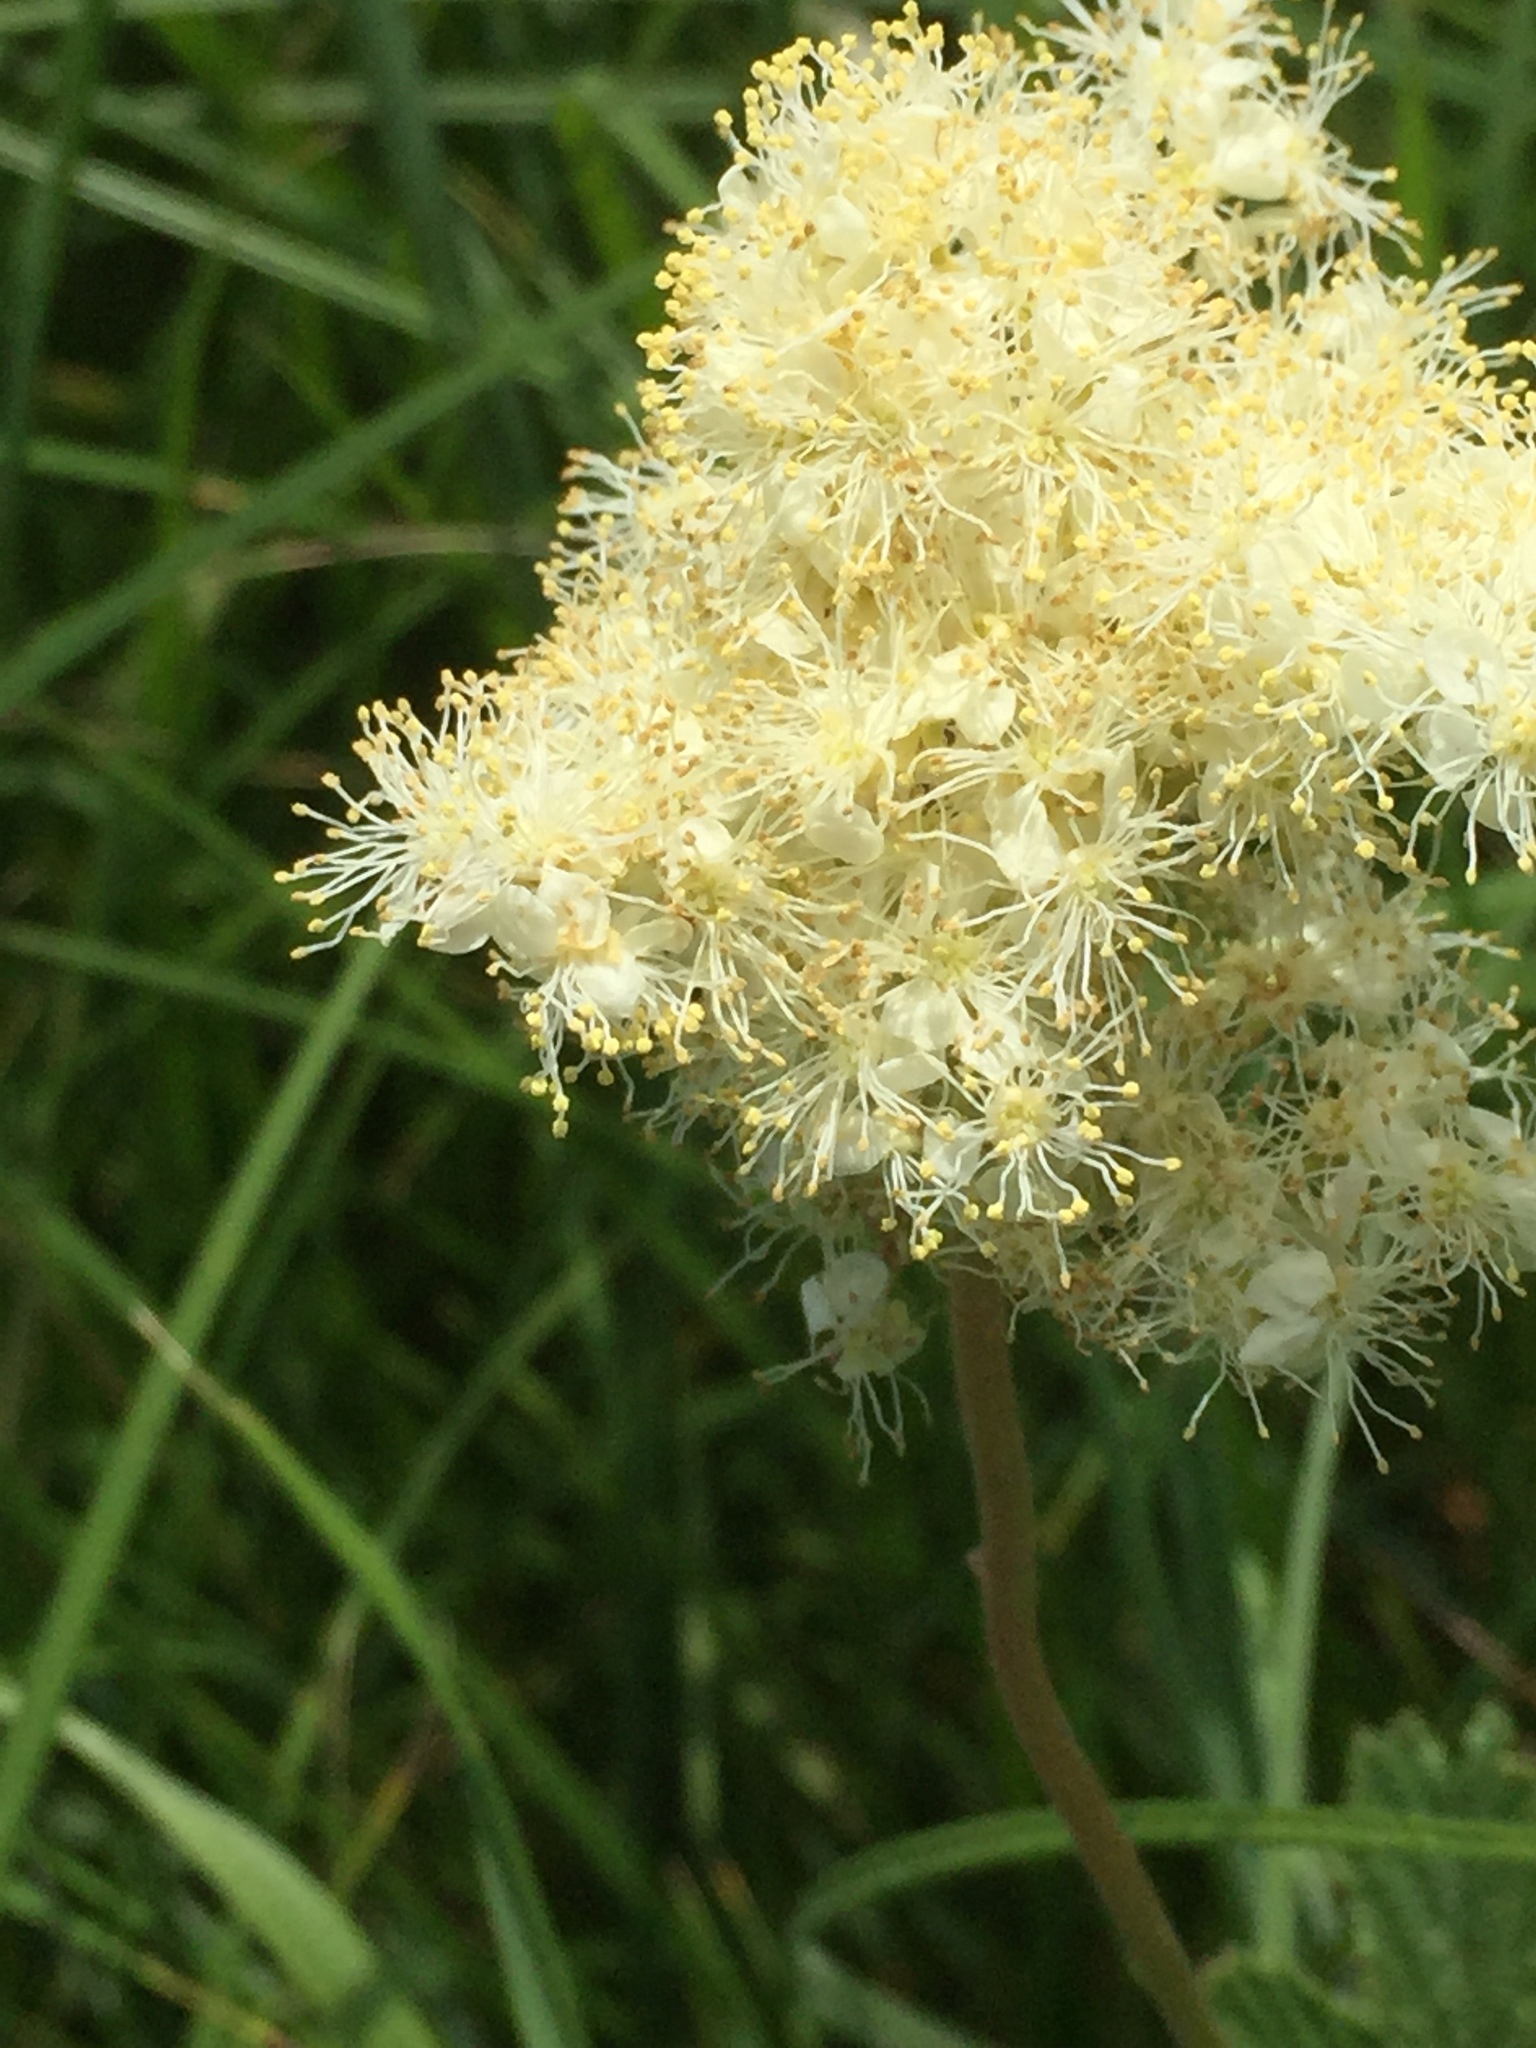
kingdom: Plantae
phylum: Tracheophyta
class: Magnoliopsida
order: Rosales
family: Rosaceae
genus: Filipendula
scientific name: Filipendula ulmaria
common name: Meadowsweet
